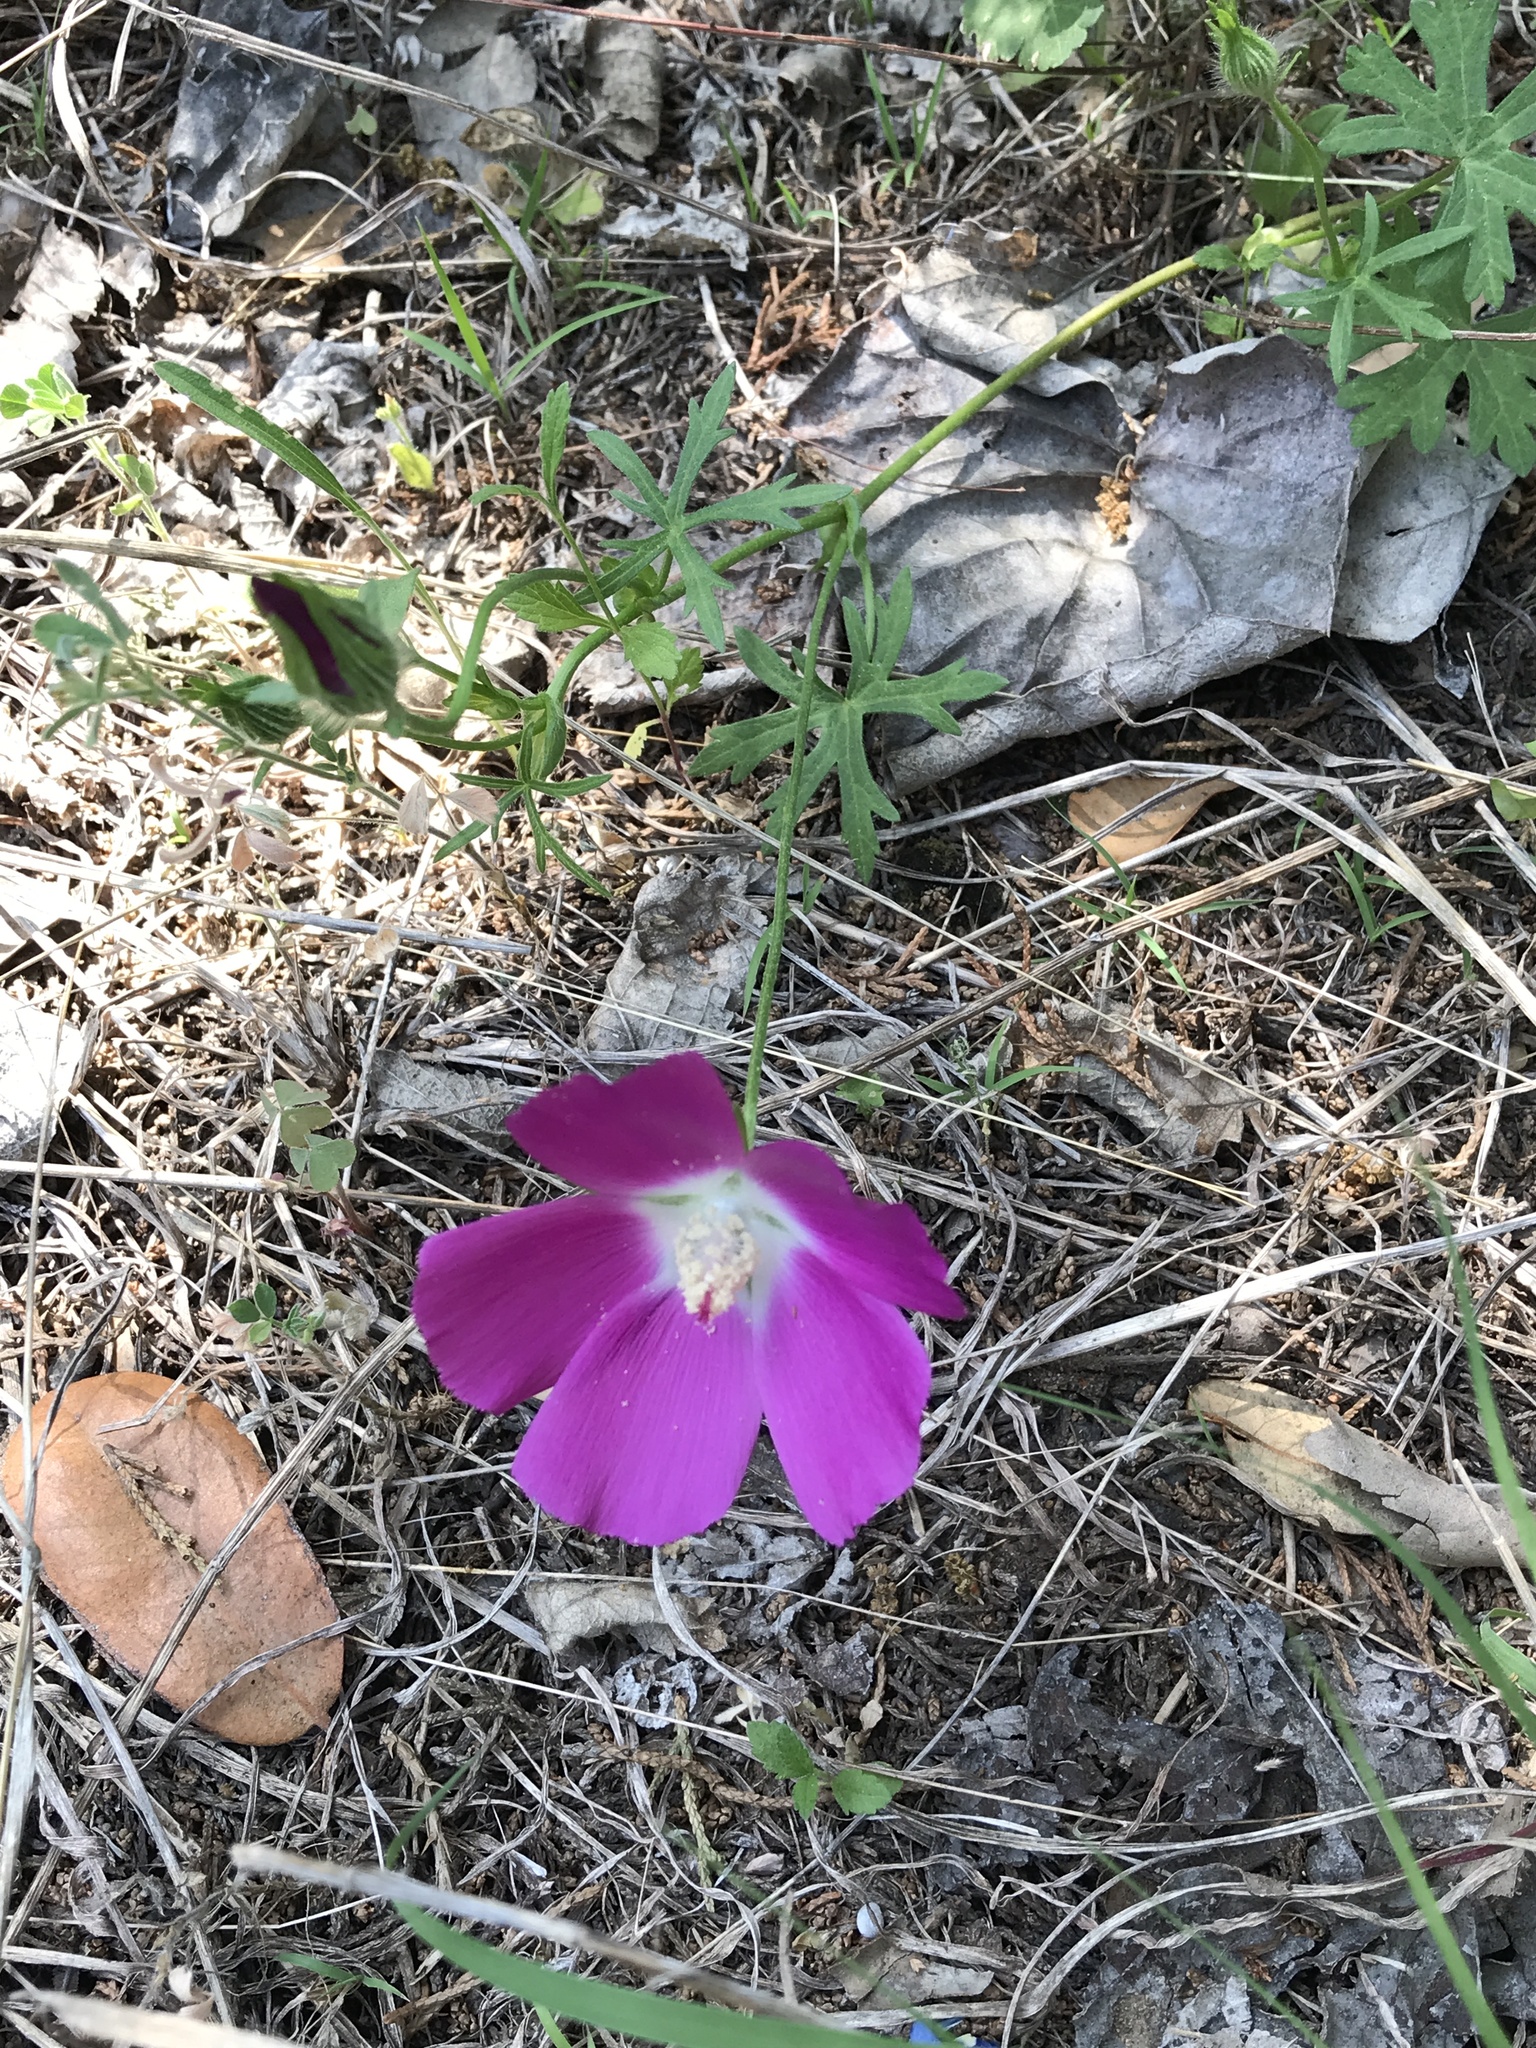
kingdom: Plantae
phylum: Tracheophyta
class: Magnoliopsida
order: Malvales
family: Malvaceae
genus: Callirhoe
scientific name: Callirhoe involucrata
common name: Purple poppy-mallow
